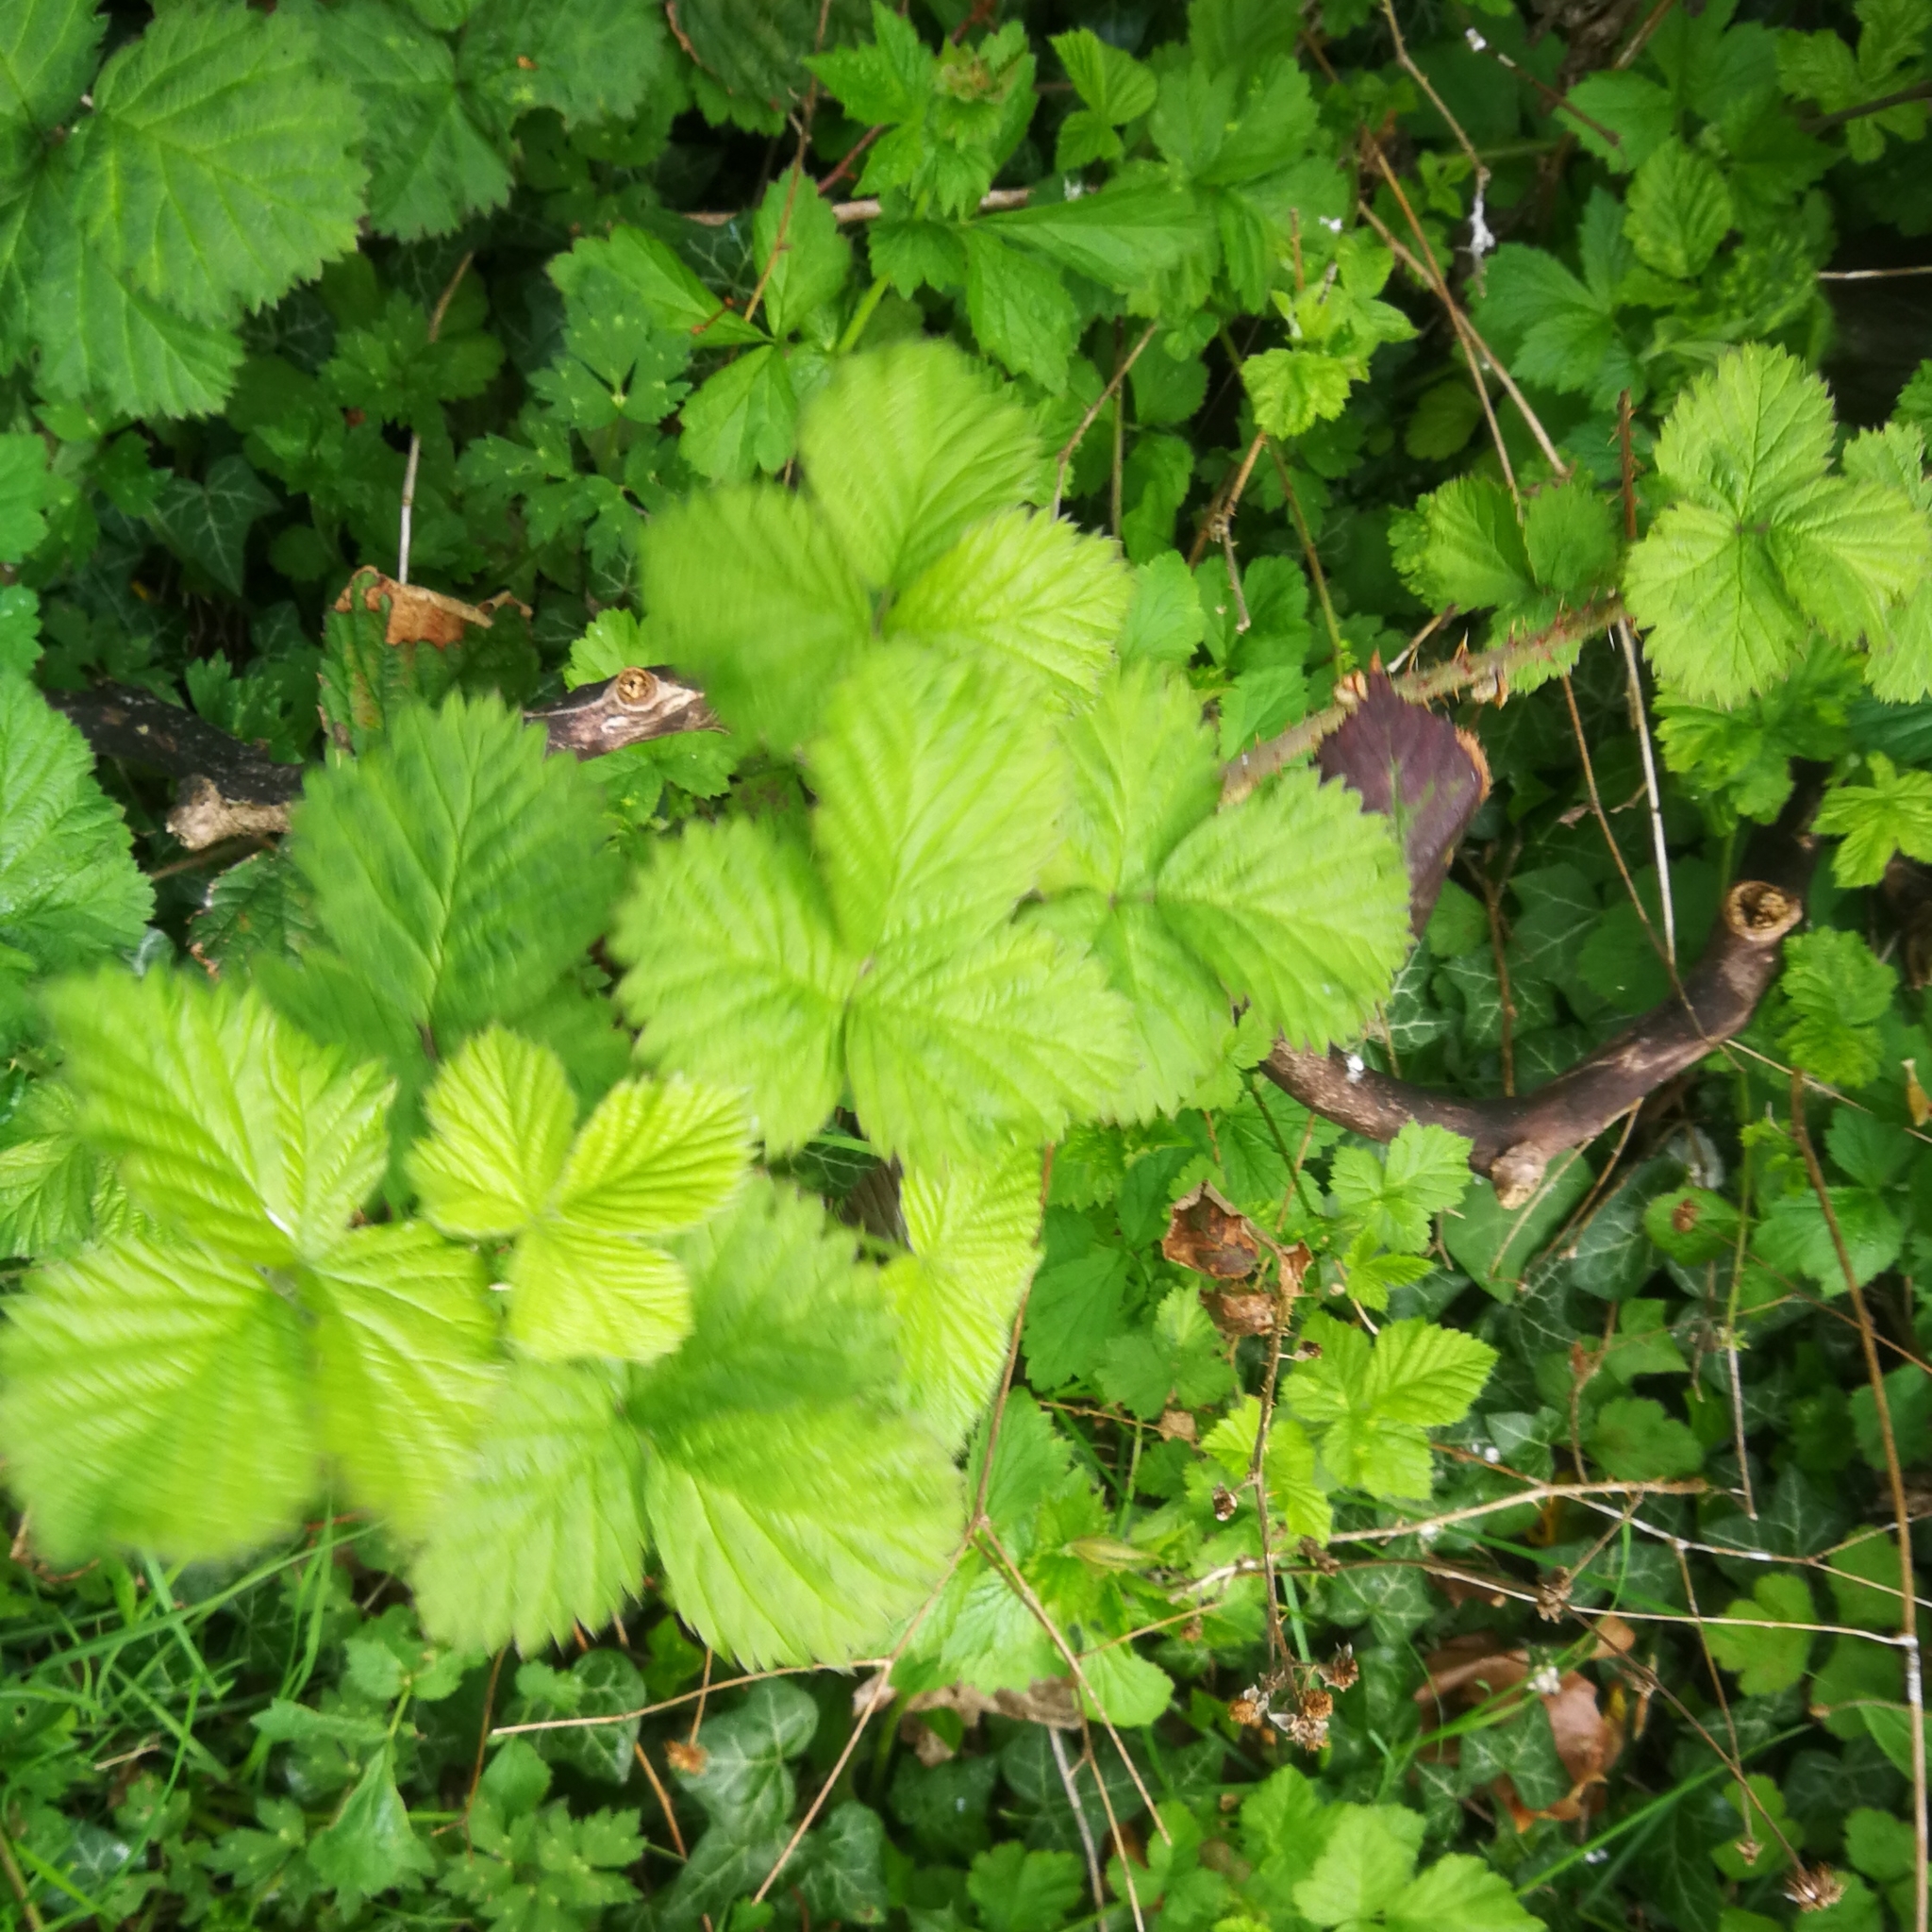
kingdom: Plantae
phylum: Tracheophyta
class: Magnoliopsida
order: Rosales
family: Rosaceae
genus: Rubus
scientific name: Rubus
